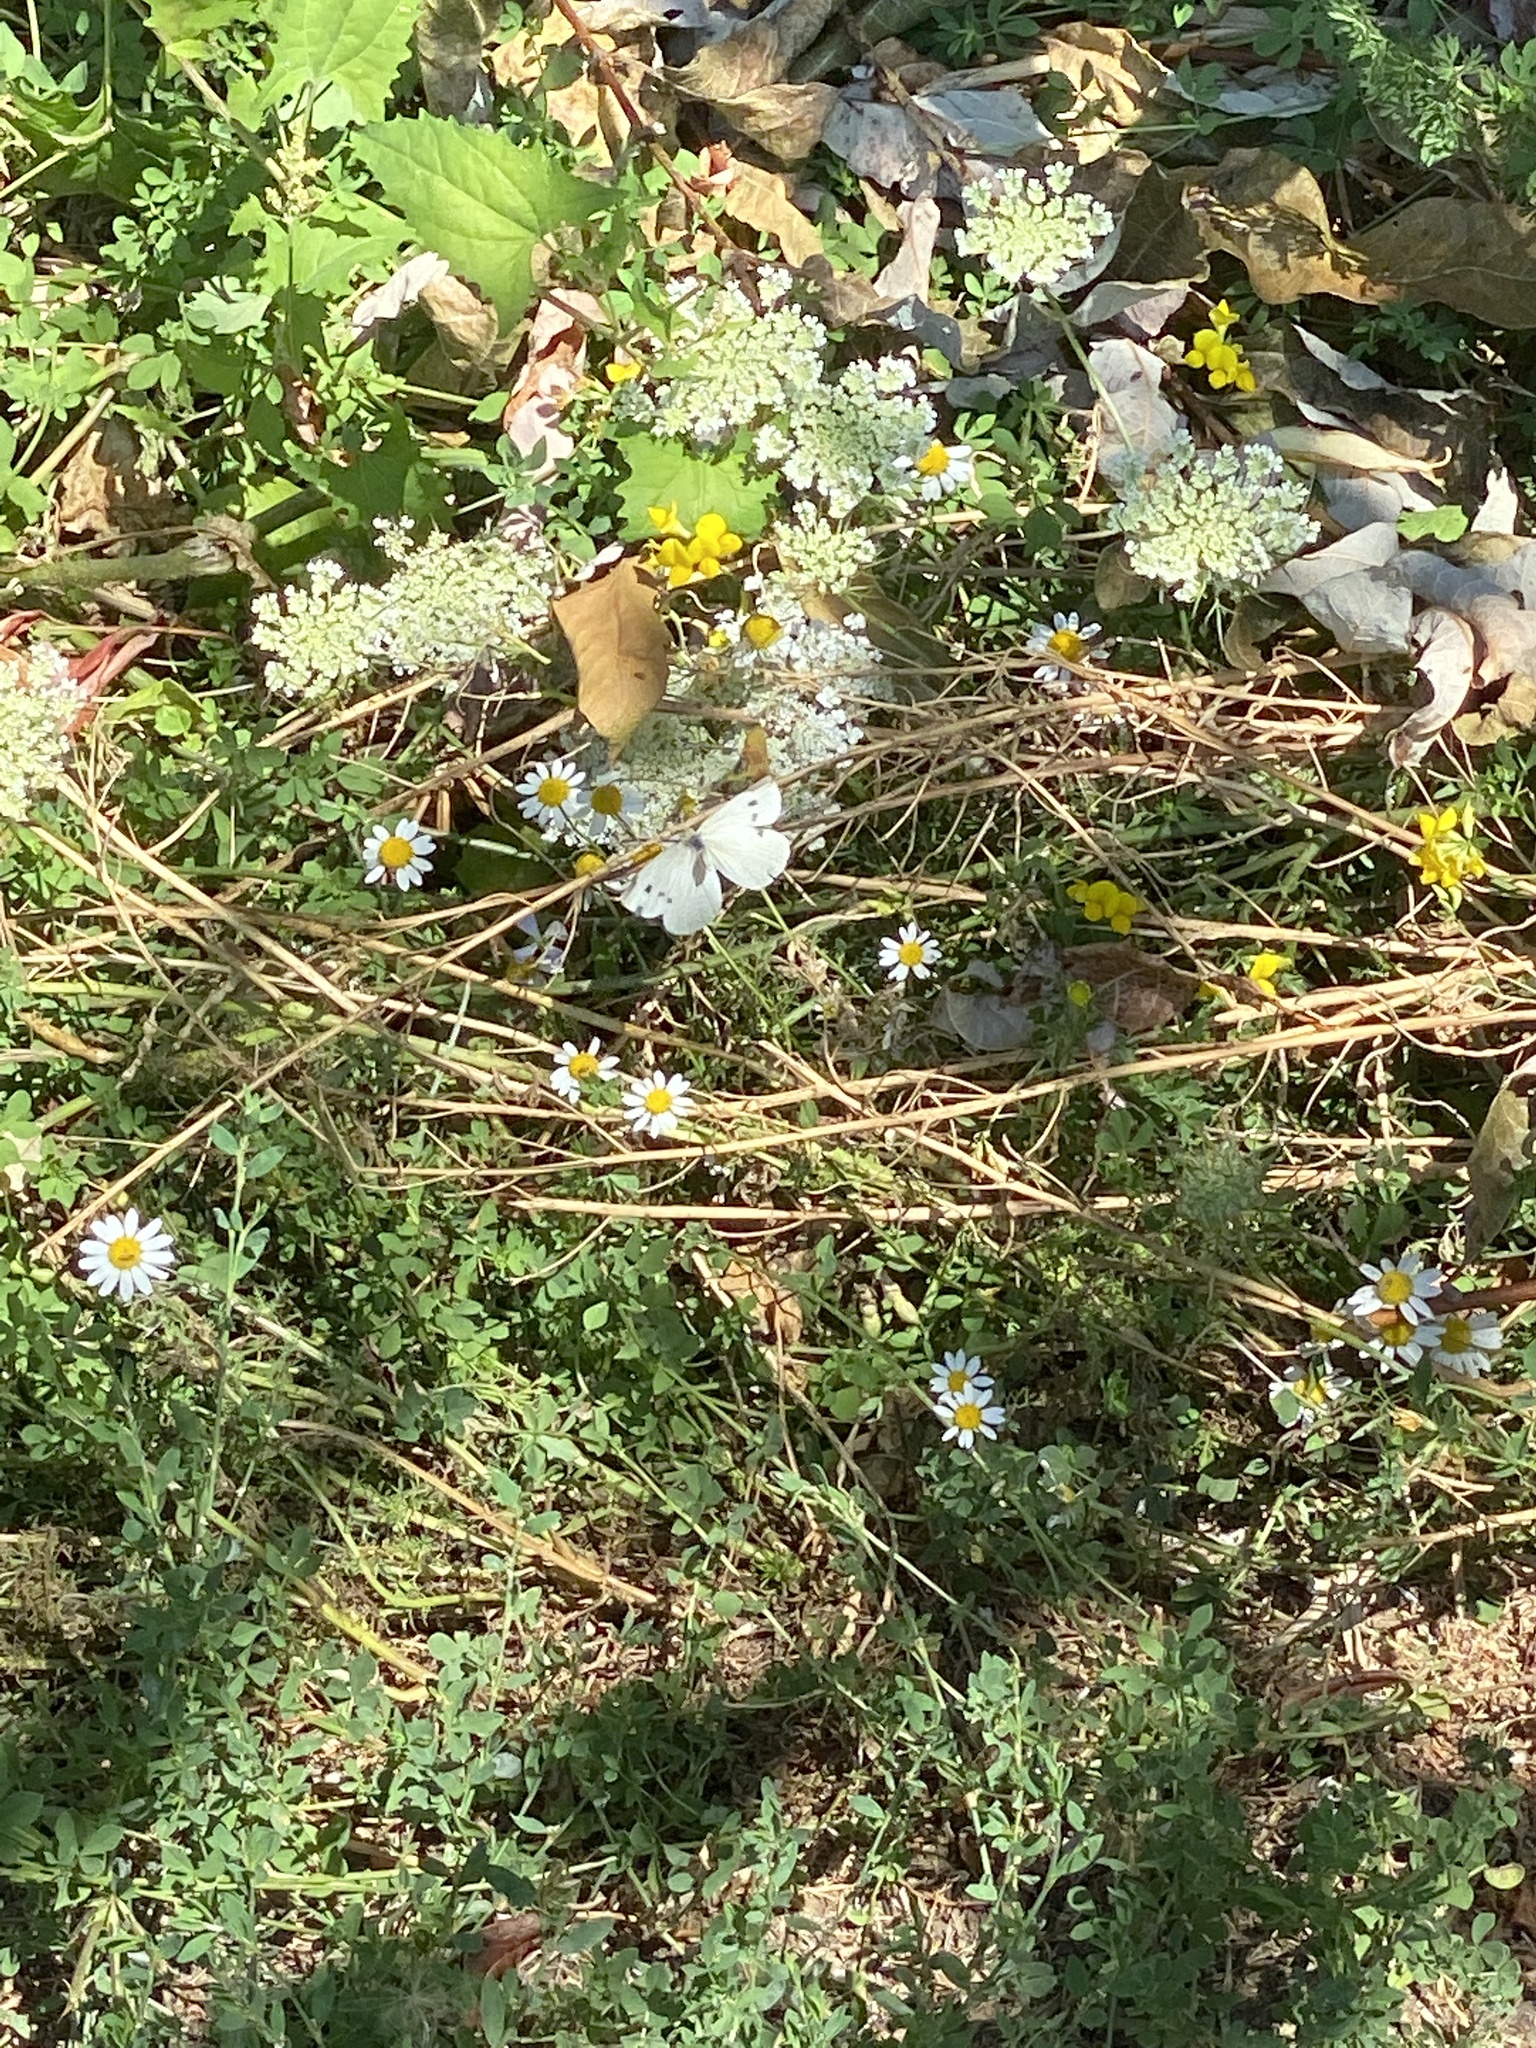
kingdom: Animalia
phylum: Arthropoda
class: Insecta
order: Lepidoptera
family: Pieridae
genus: Pieris
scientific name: Pieris rapae
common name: Small white
